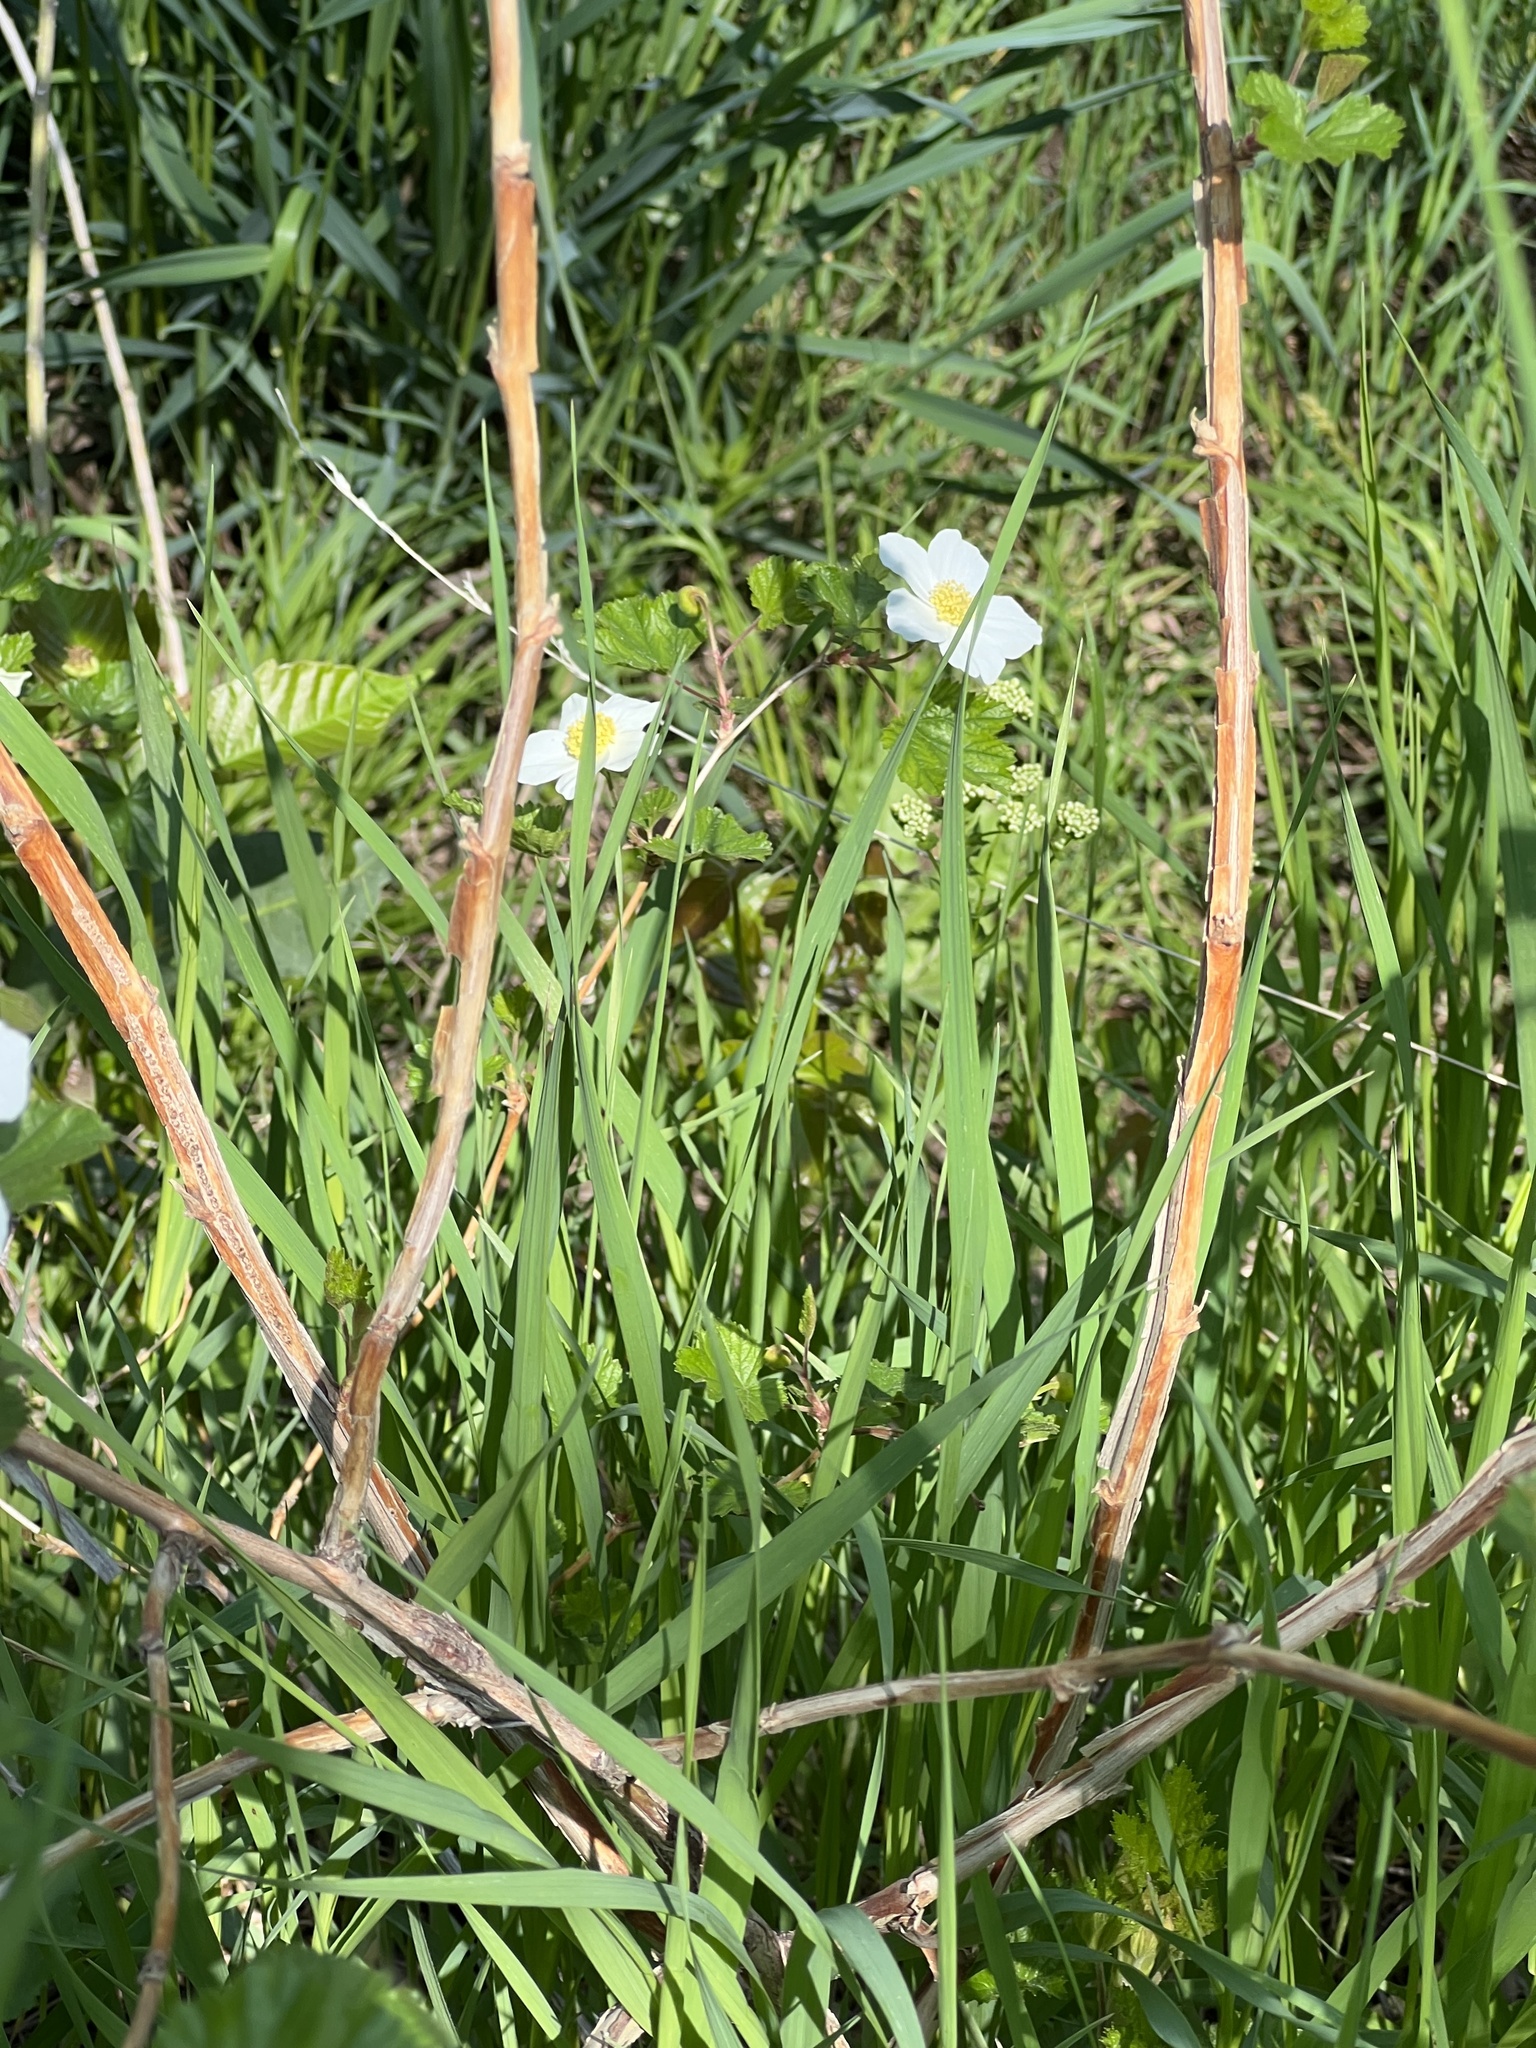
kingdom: Plantae
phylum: Tracheophyta
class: Magnoliopsida
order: Rosales
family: Rosaceae
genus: Rubus
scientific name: Rubus deliciosus
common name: Rocky mountain raspberry
